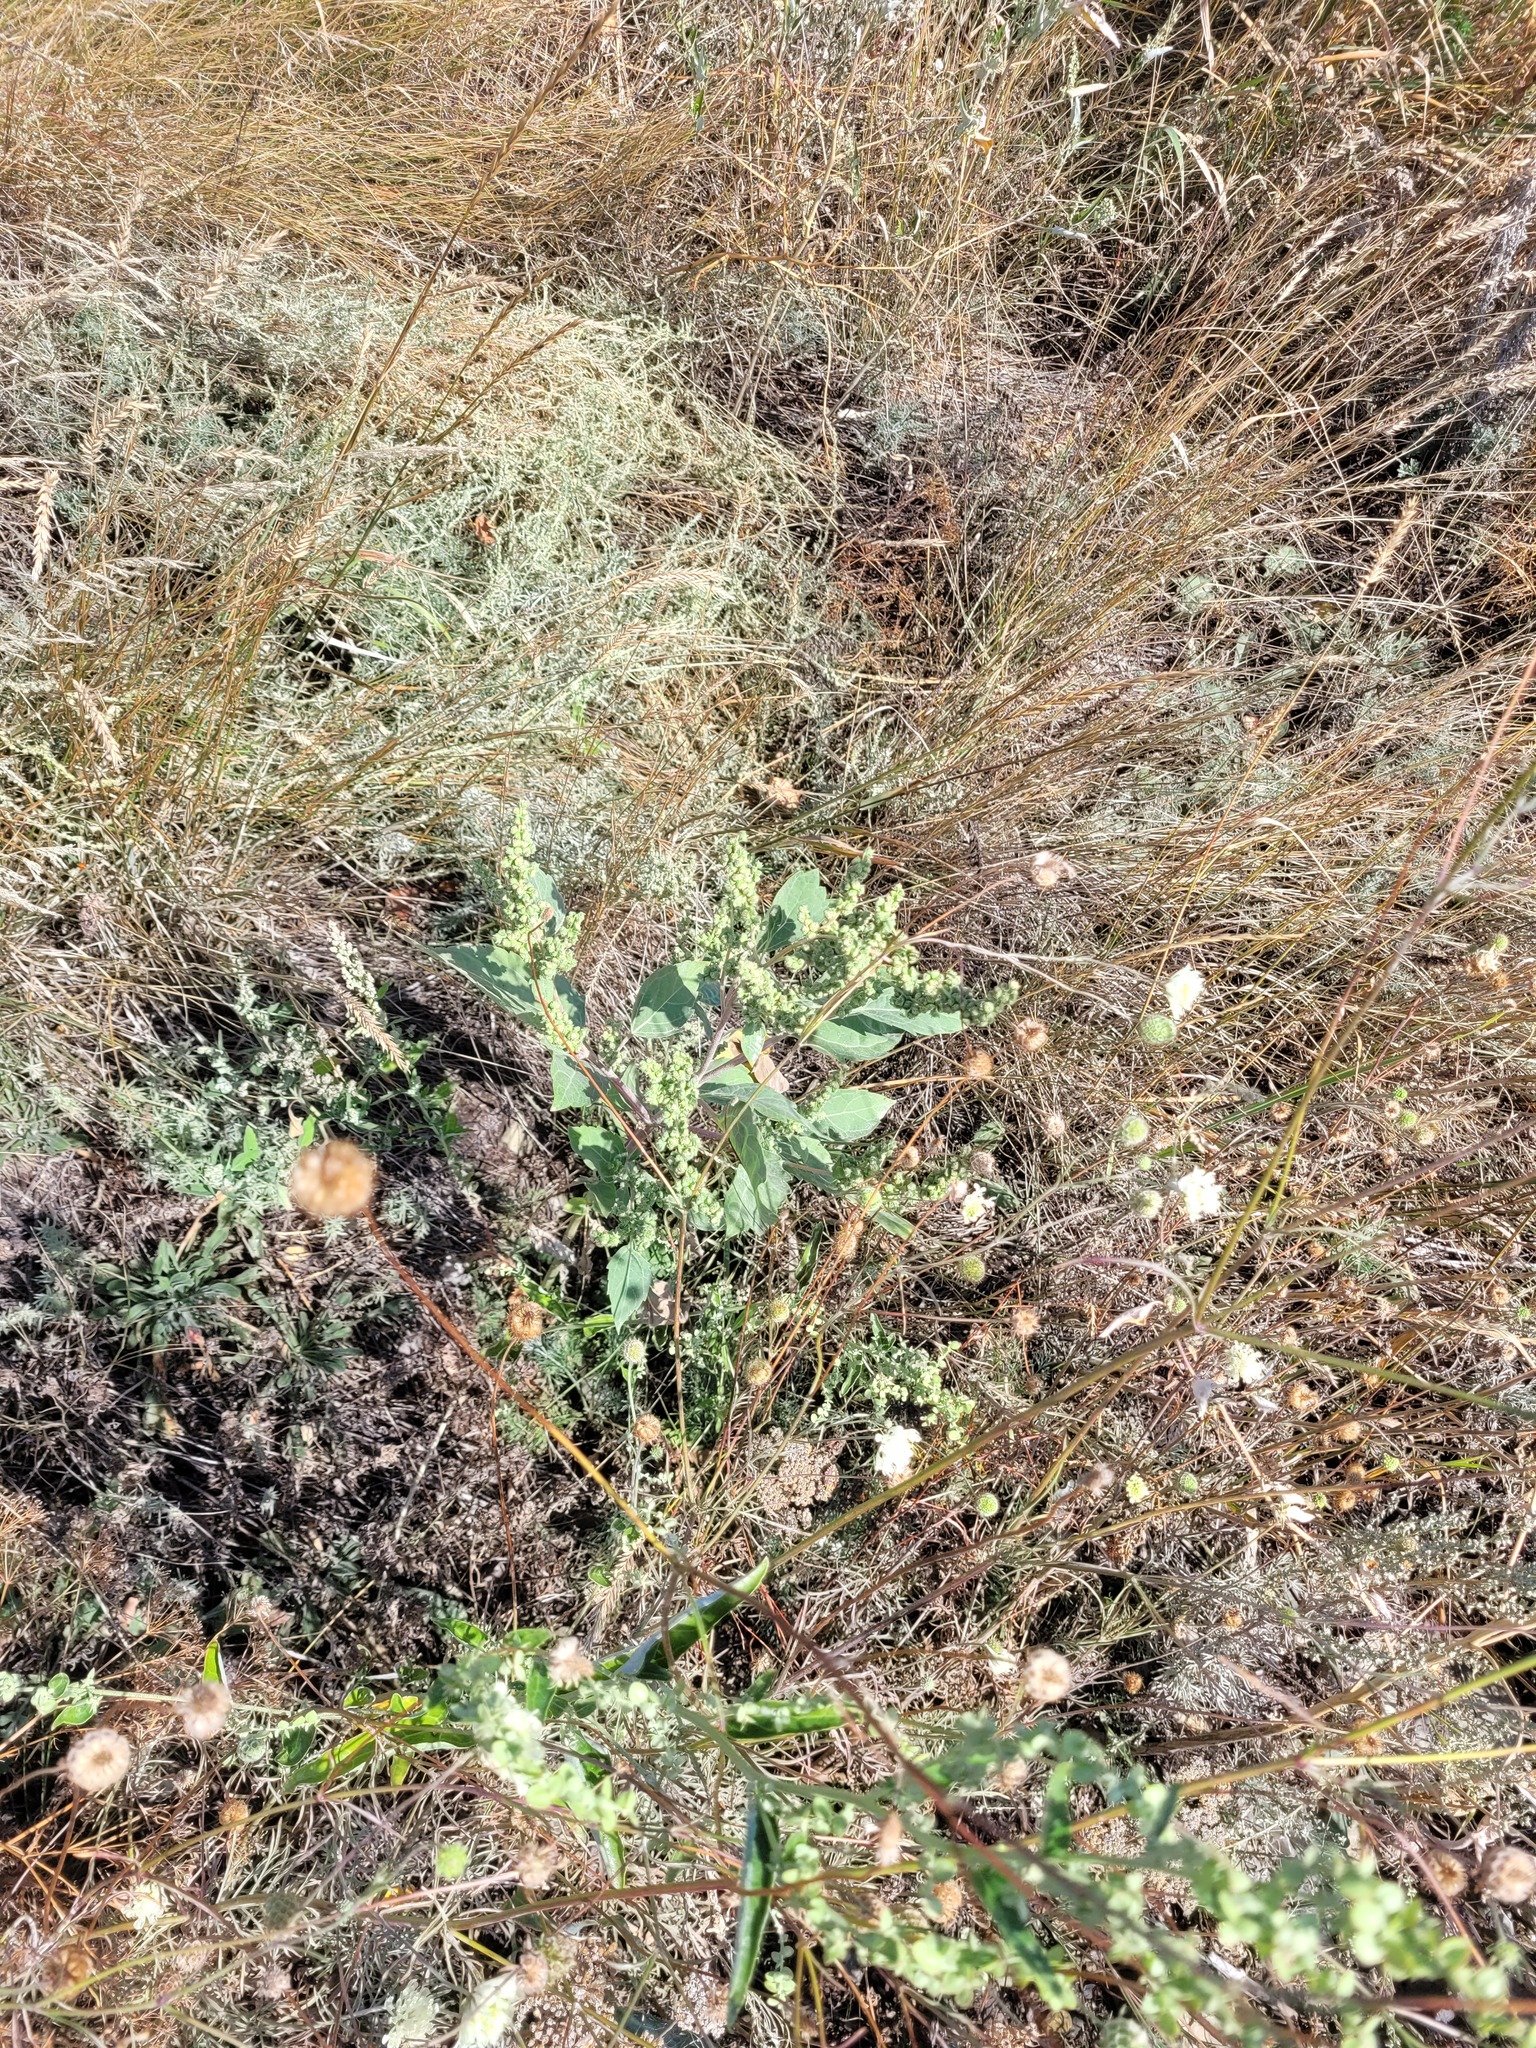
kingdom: Plantae
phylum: Tracheophyta
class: Magnoliopsida
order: Asterales
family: Asteraceae
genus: Cyclachaena
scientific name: Cyclachaena xanthiifolia
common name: Giant sumpweed
